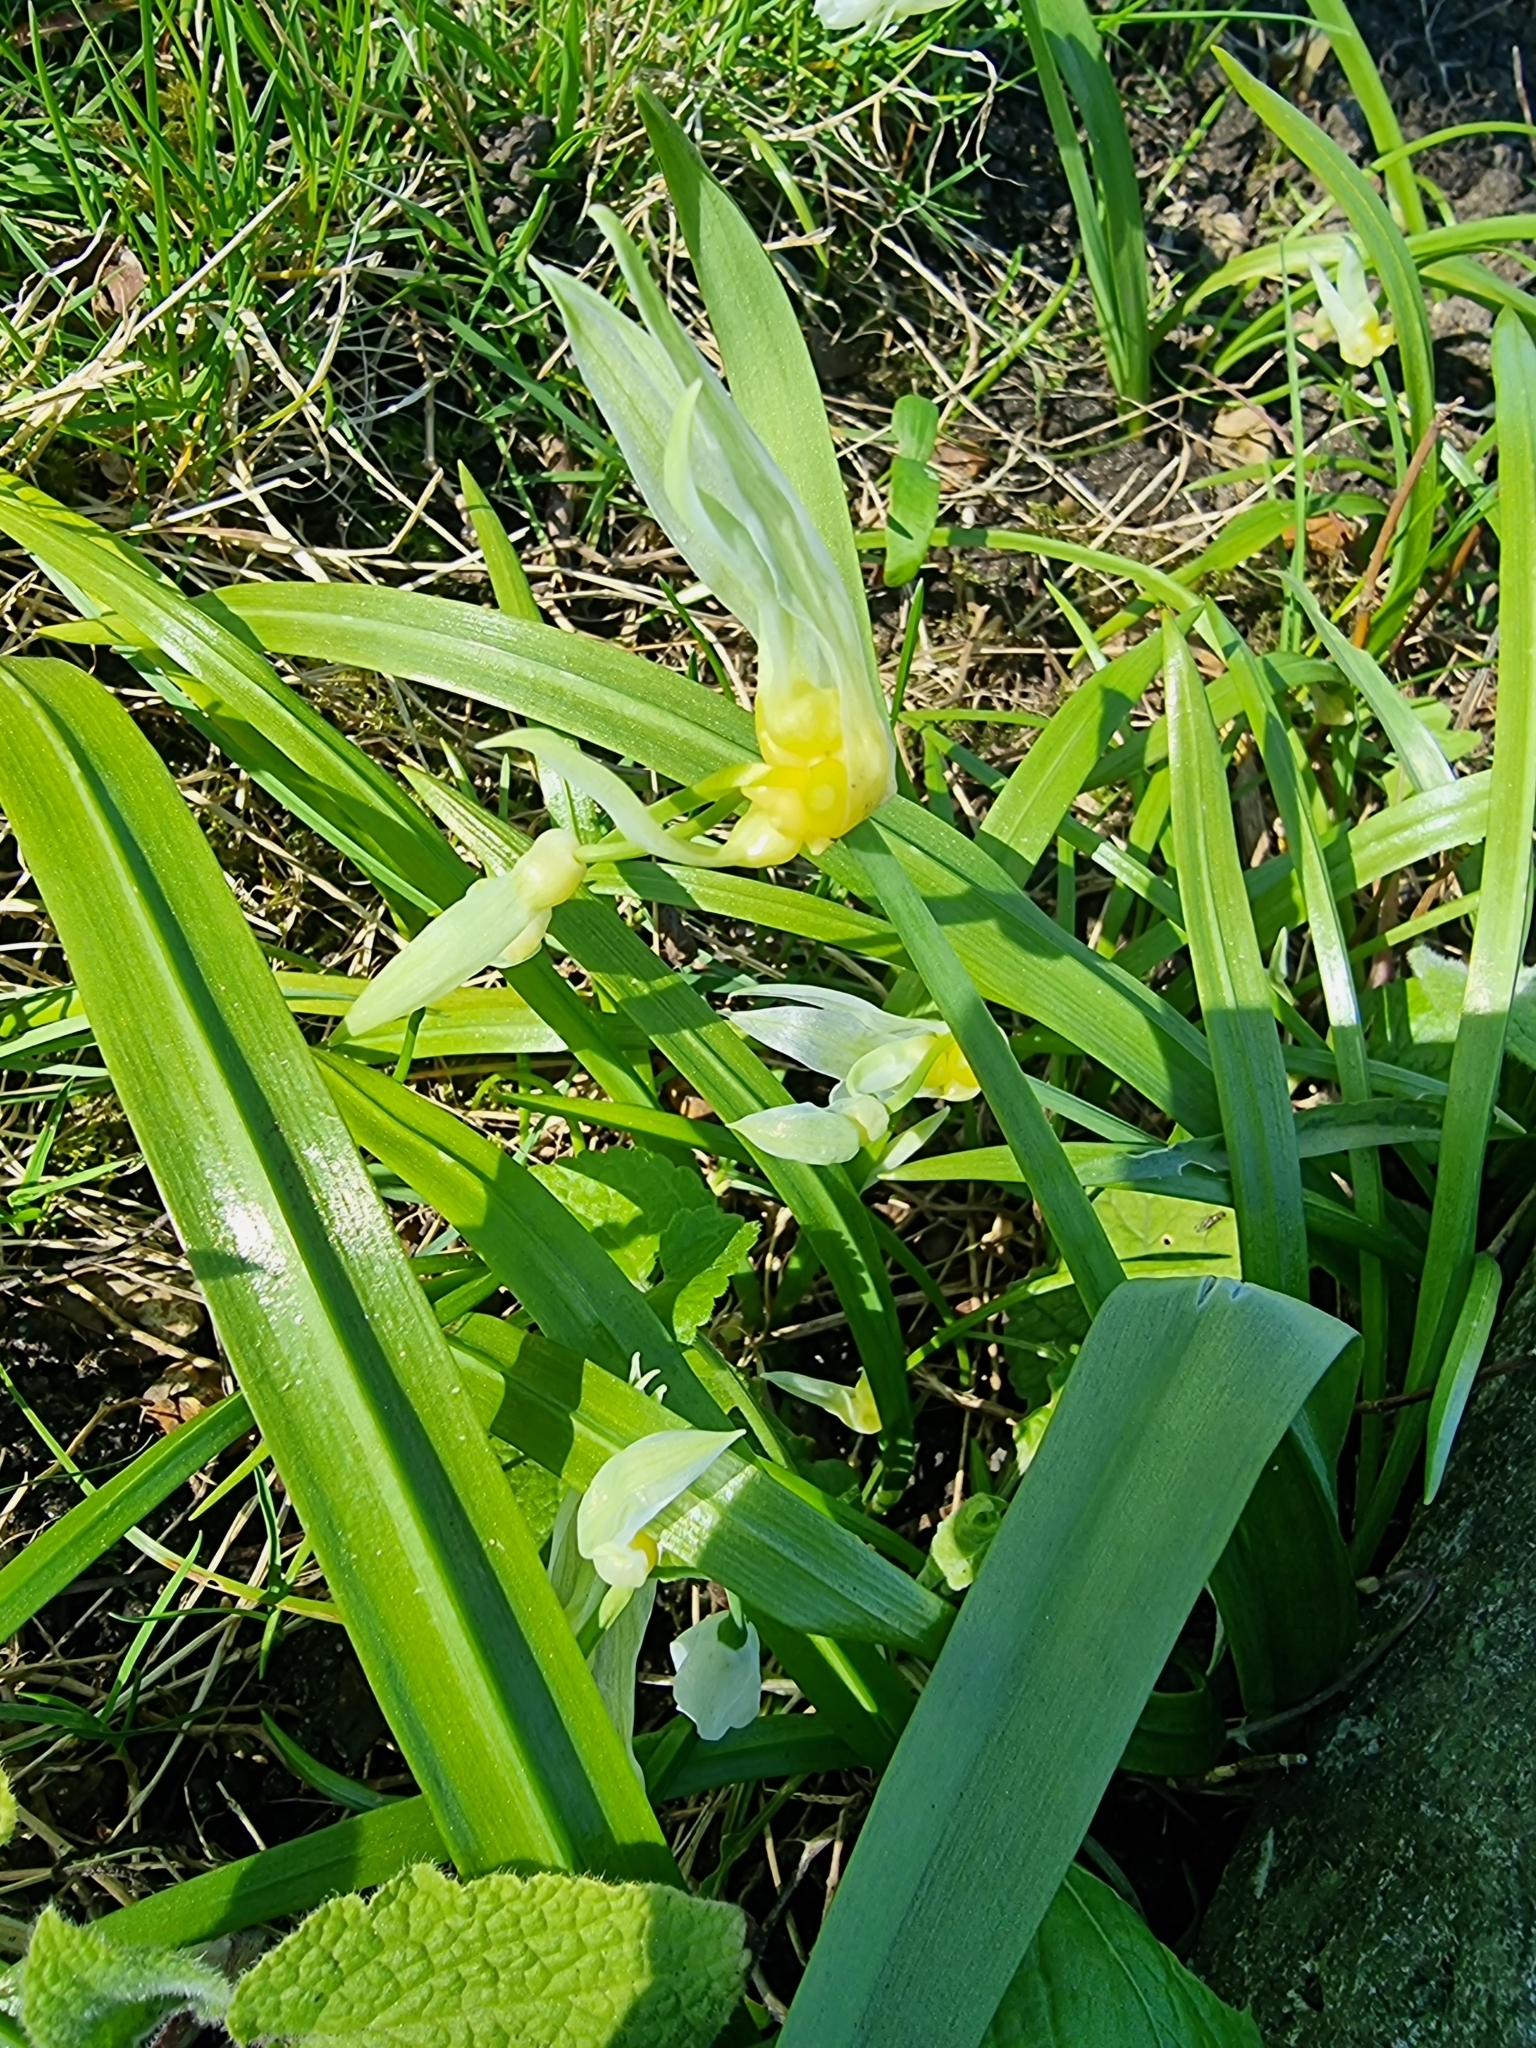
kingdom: Plantae
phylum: Tracheophyta
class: Liliopsida
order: Asparagales
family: Amaryllidaceae
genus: Allium
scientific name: Allium paradoxum
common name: Few-flowered garlic
